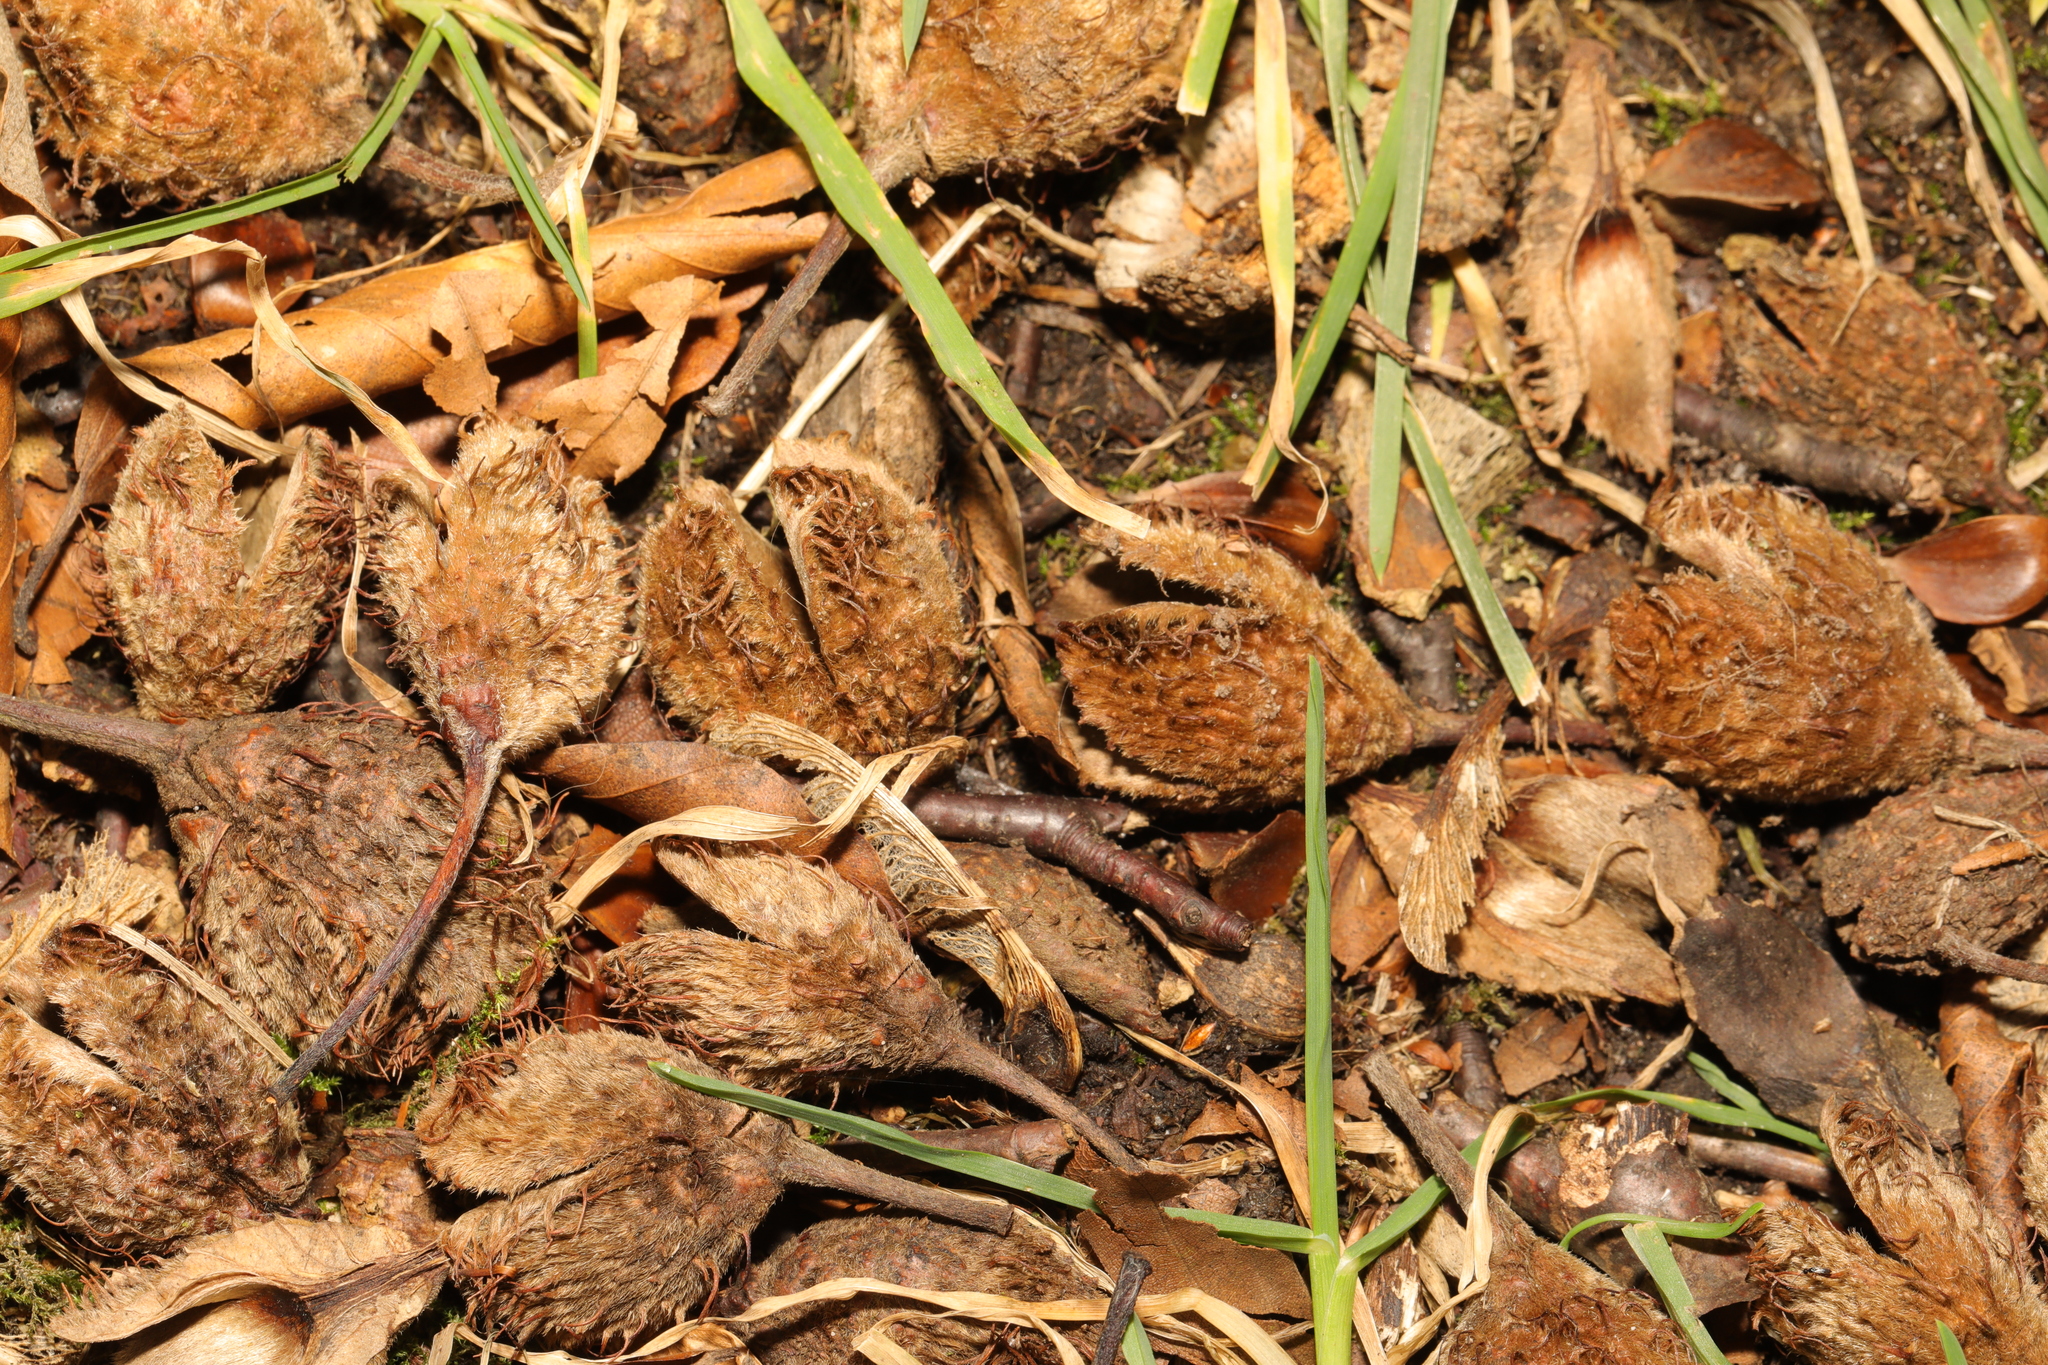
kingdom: Plantae
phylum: Tracheophyta
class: Magnoliopsida
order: Fagales
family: Fagaceae
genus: Fagus
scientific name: Fagus sylvatica
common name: Beech
